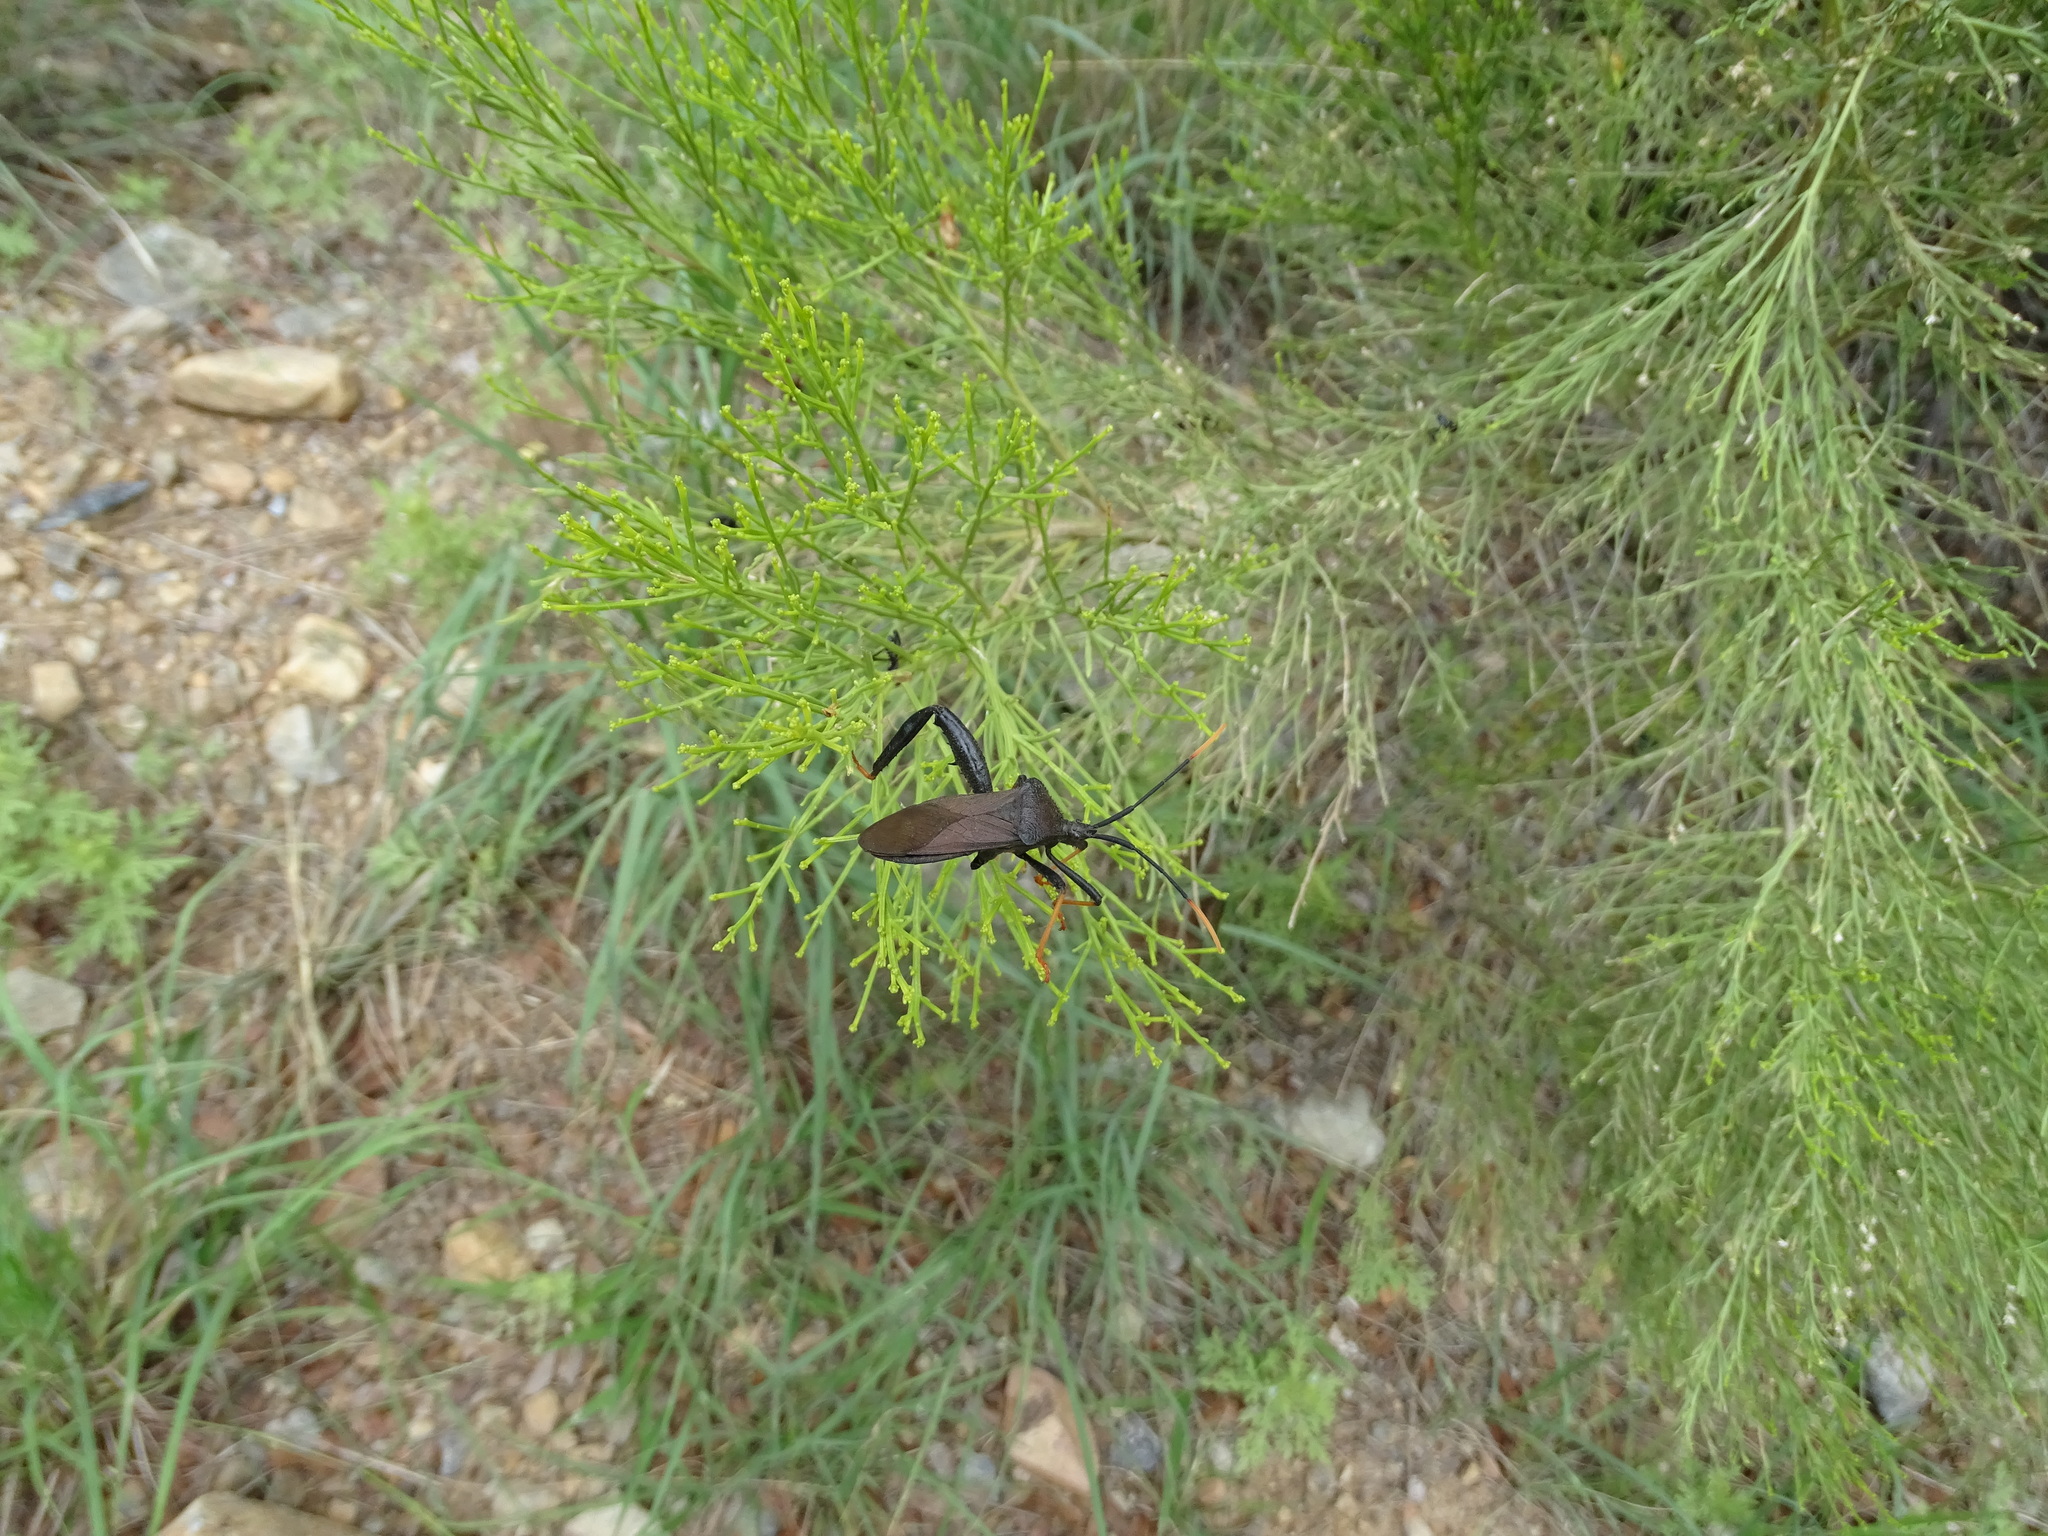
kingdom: Animalia
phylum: Arthropoda
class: Insecta
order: Hemiptera
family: Coreidae
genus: Acanthocephala
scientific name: Acanthocephala thomasi
